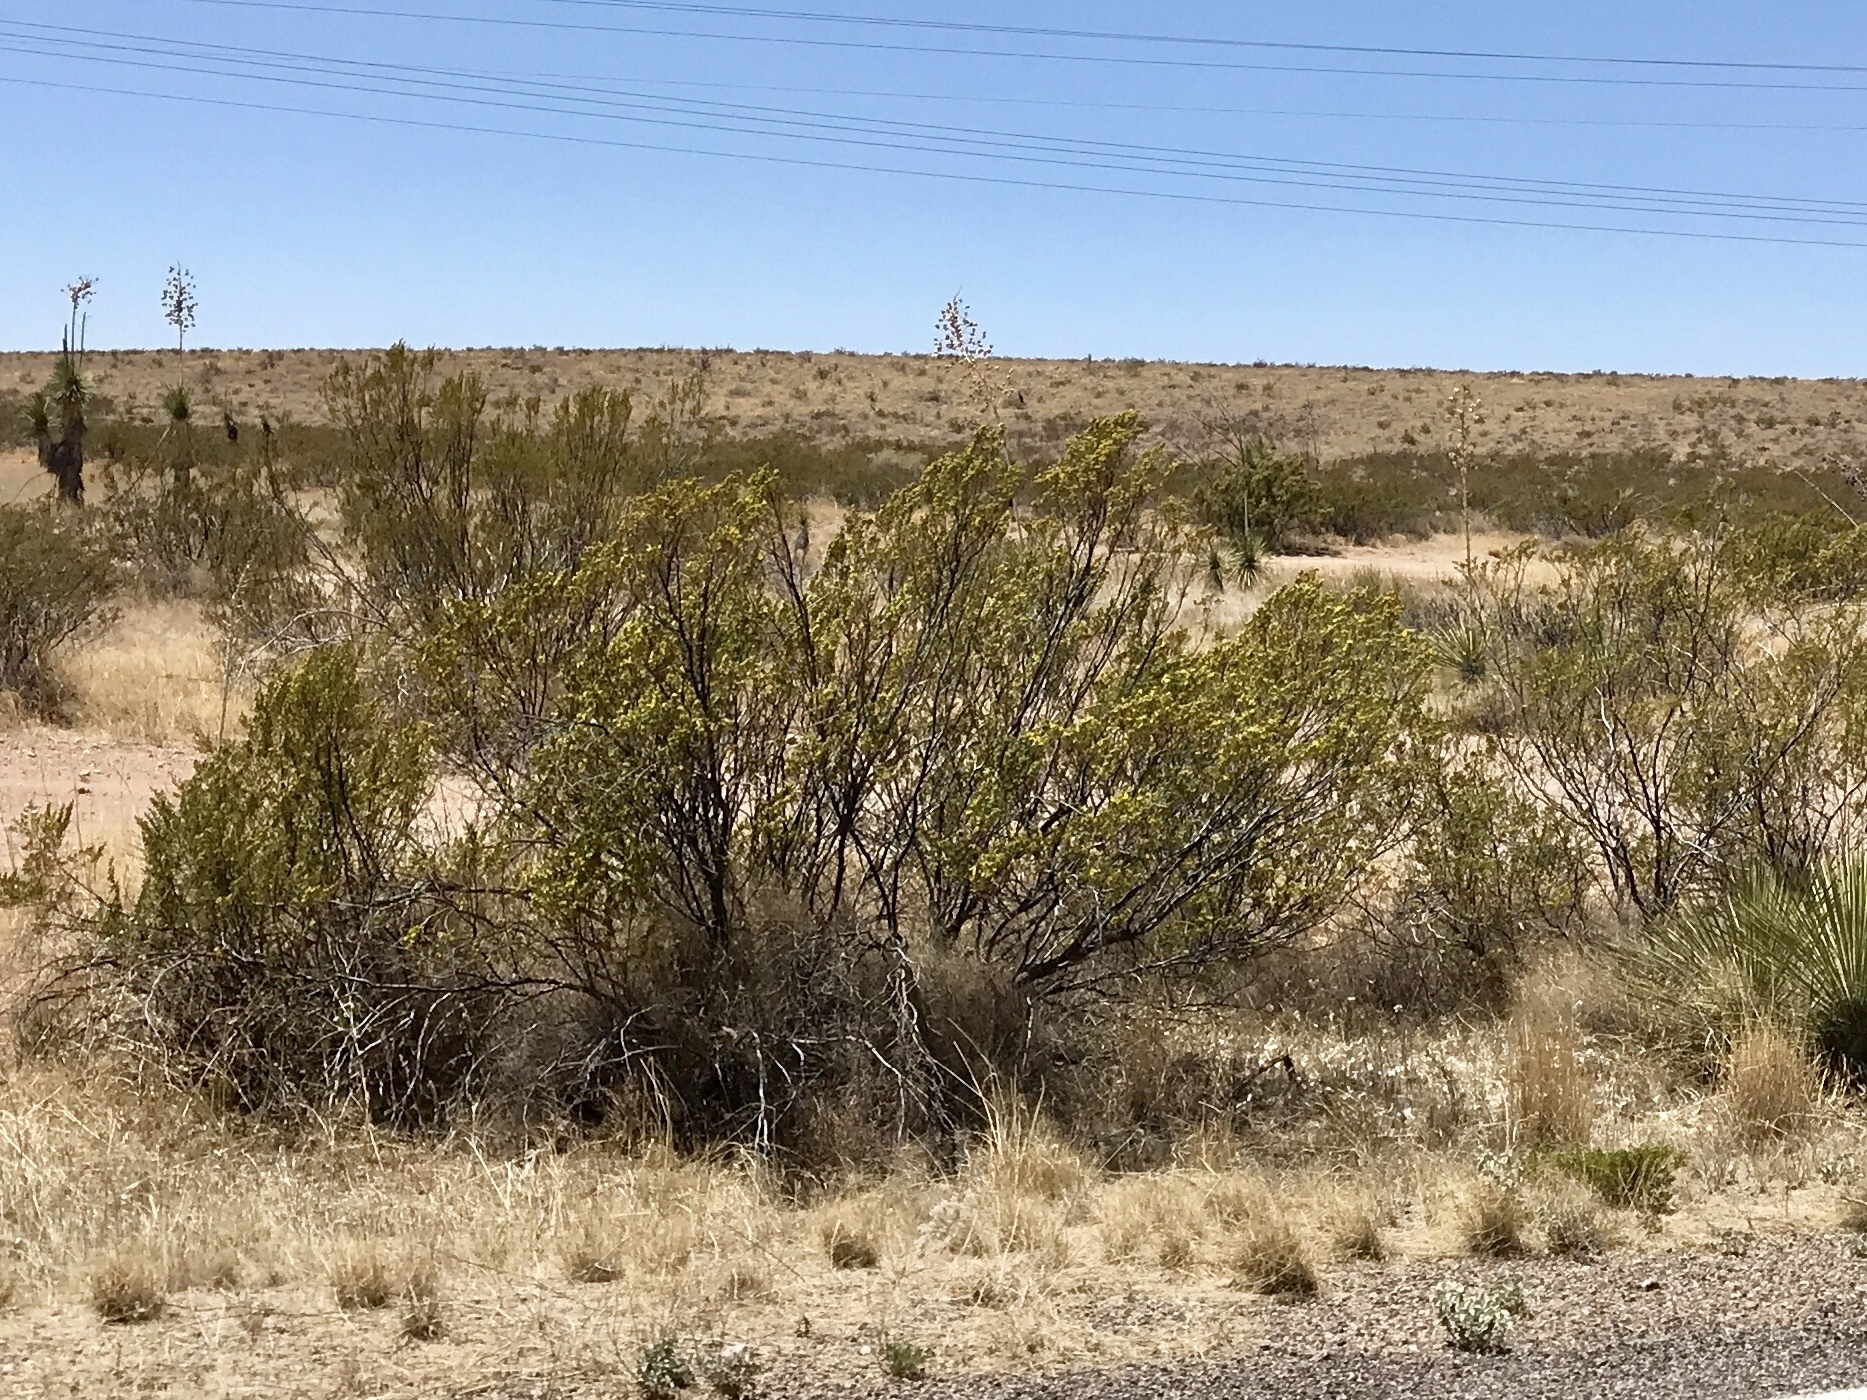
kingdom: Plantae
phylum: Tracheophyta
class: Magnoliopsida
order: Zygophyllales
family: Zygophyllaceae
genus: Larrea
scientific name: Larrea tridentata
